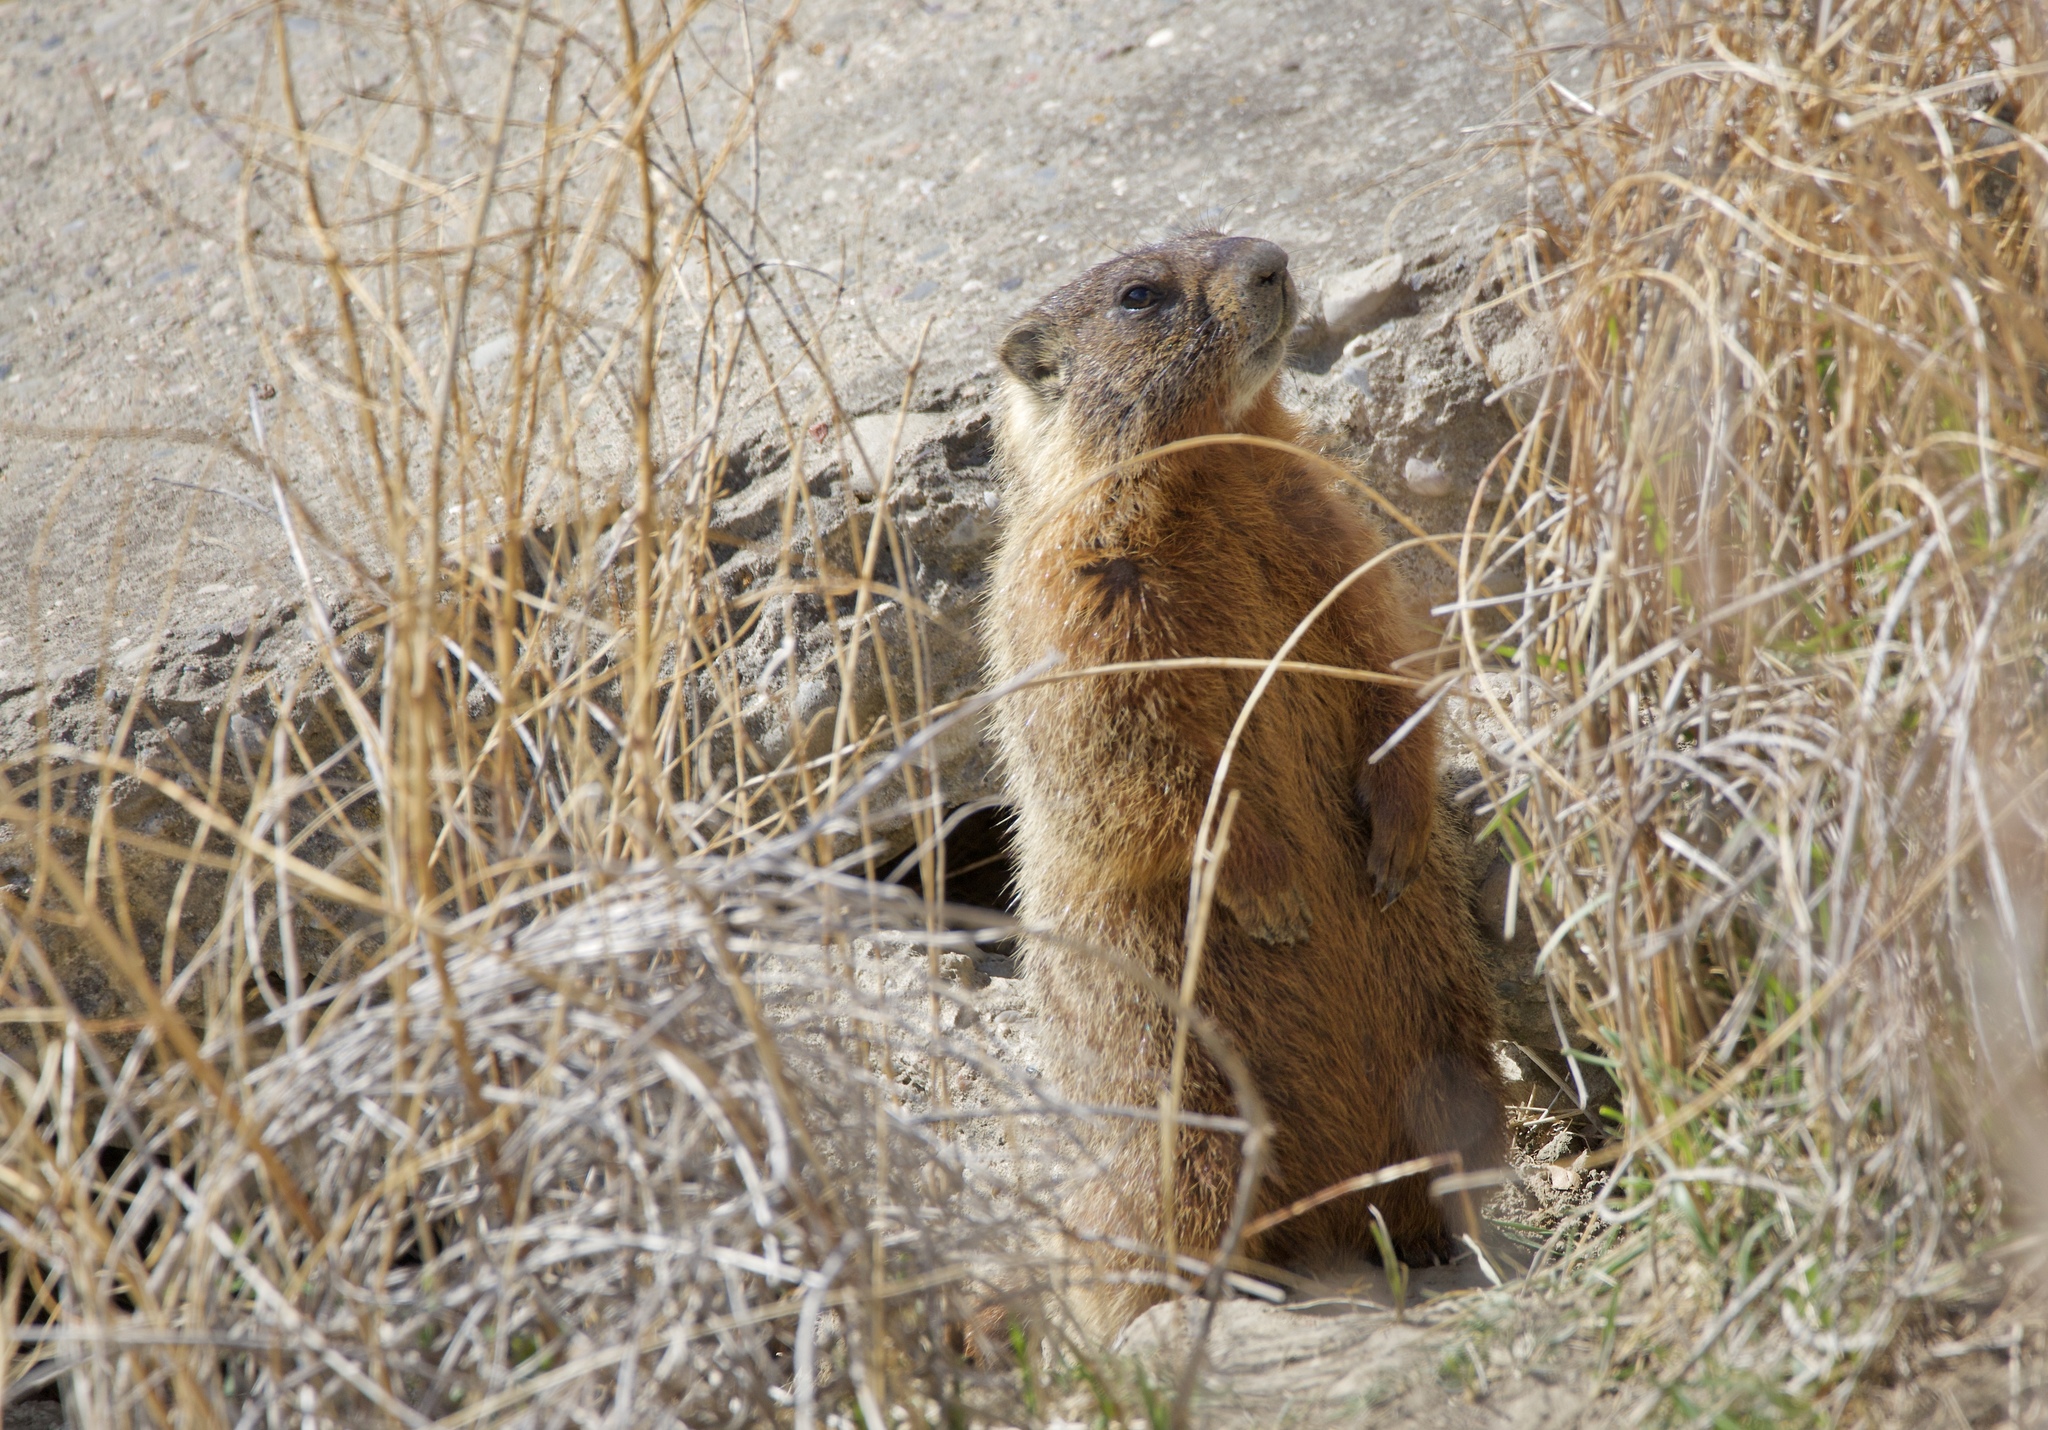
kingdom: Animalia
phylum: Chordata
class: Mammalia
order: Rodentia
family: Sciuridae
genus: Marmota
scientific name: Marmota flaviventris
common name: Yellow-bellied marmot
